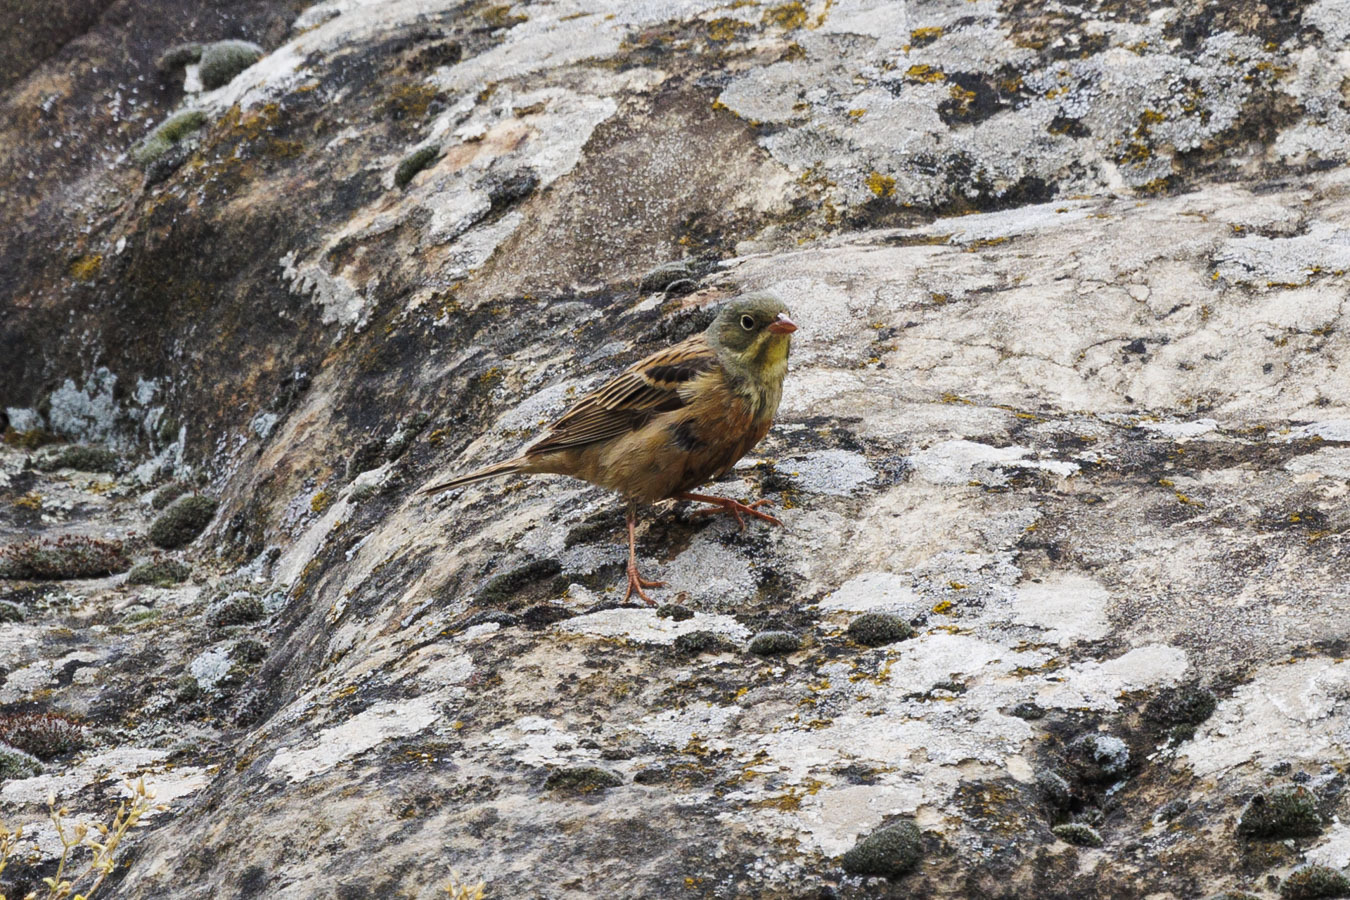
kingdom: Animalia
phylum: Chordata
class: Aves
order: Passeriformes
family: Emberizidae
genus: Emberiza
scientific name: Emberiza hortulana
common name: Ortolan bunting
